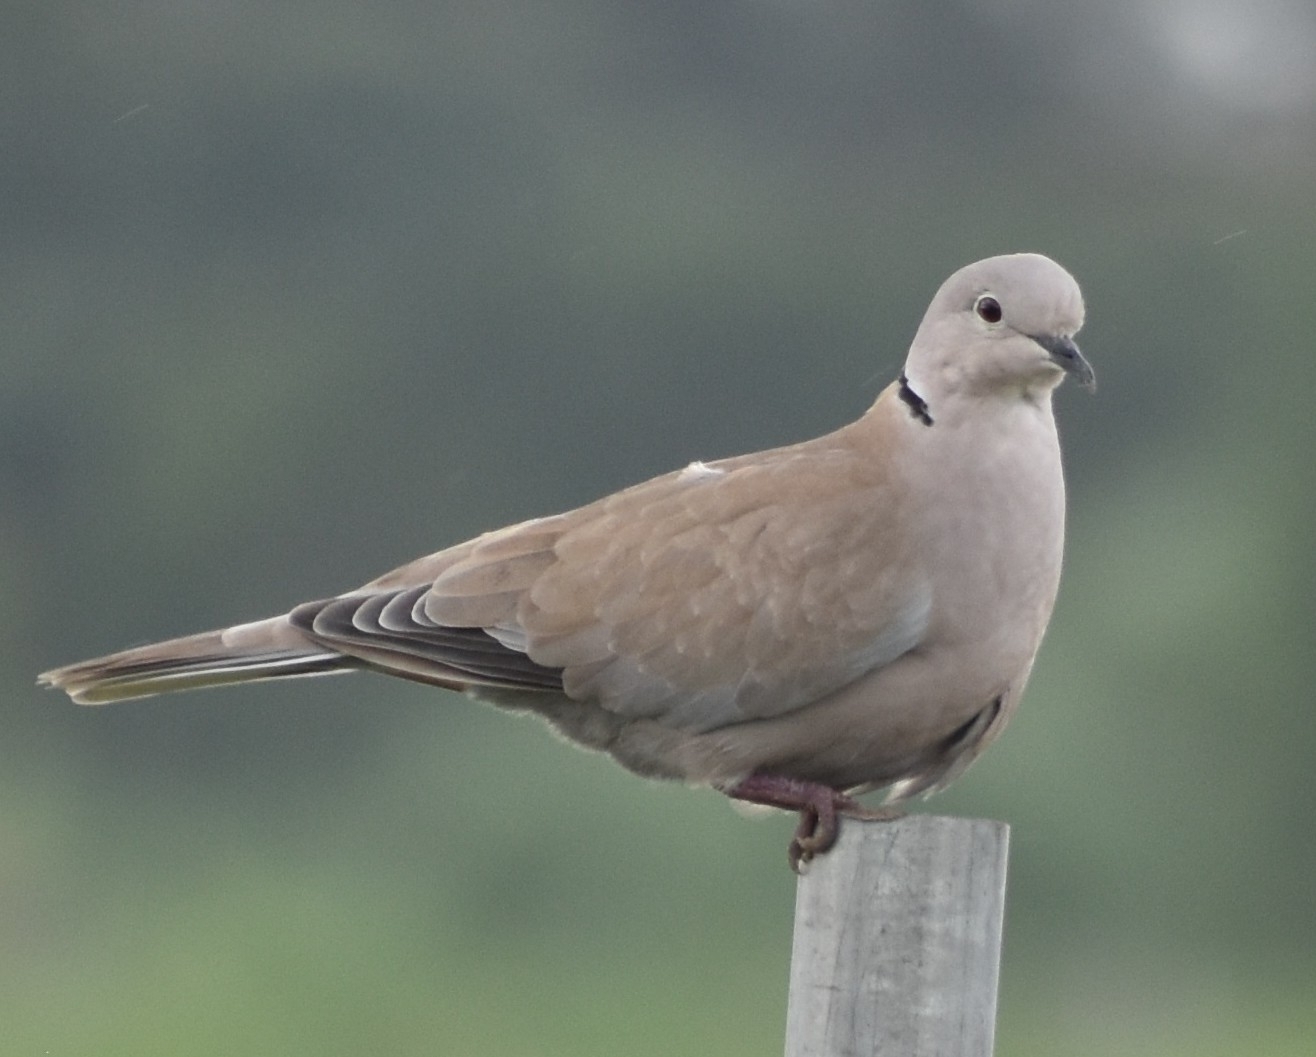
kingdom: Animalia
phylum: Chordata
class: Aves
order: Columbiformes
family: Columbidae
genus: Streptopelia
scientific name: Streptopelia decaocto
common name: Eurasian collared dove
